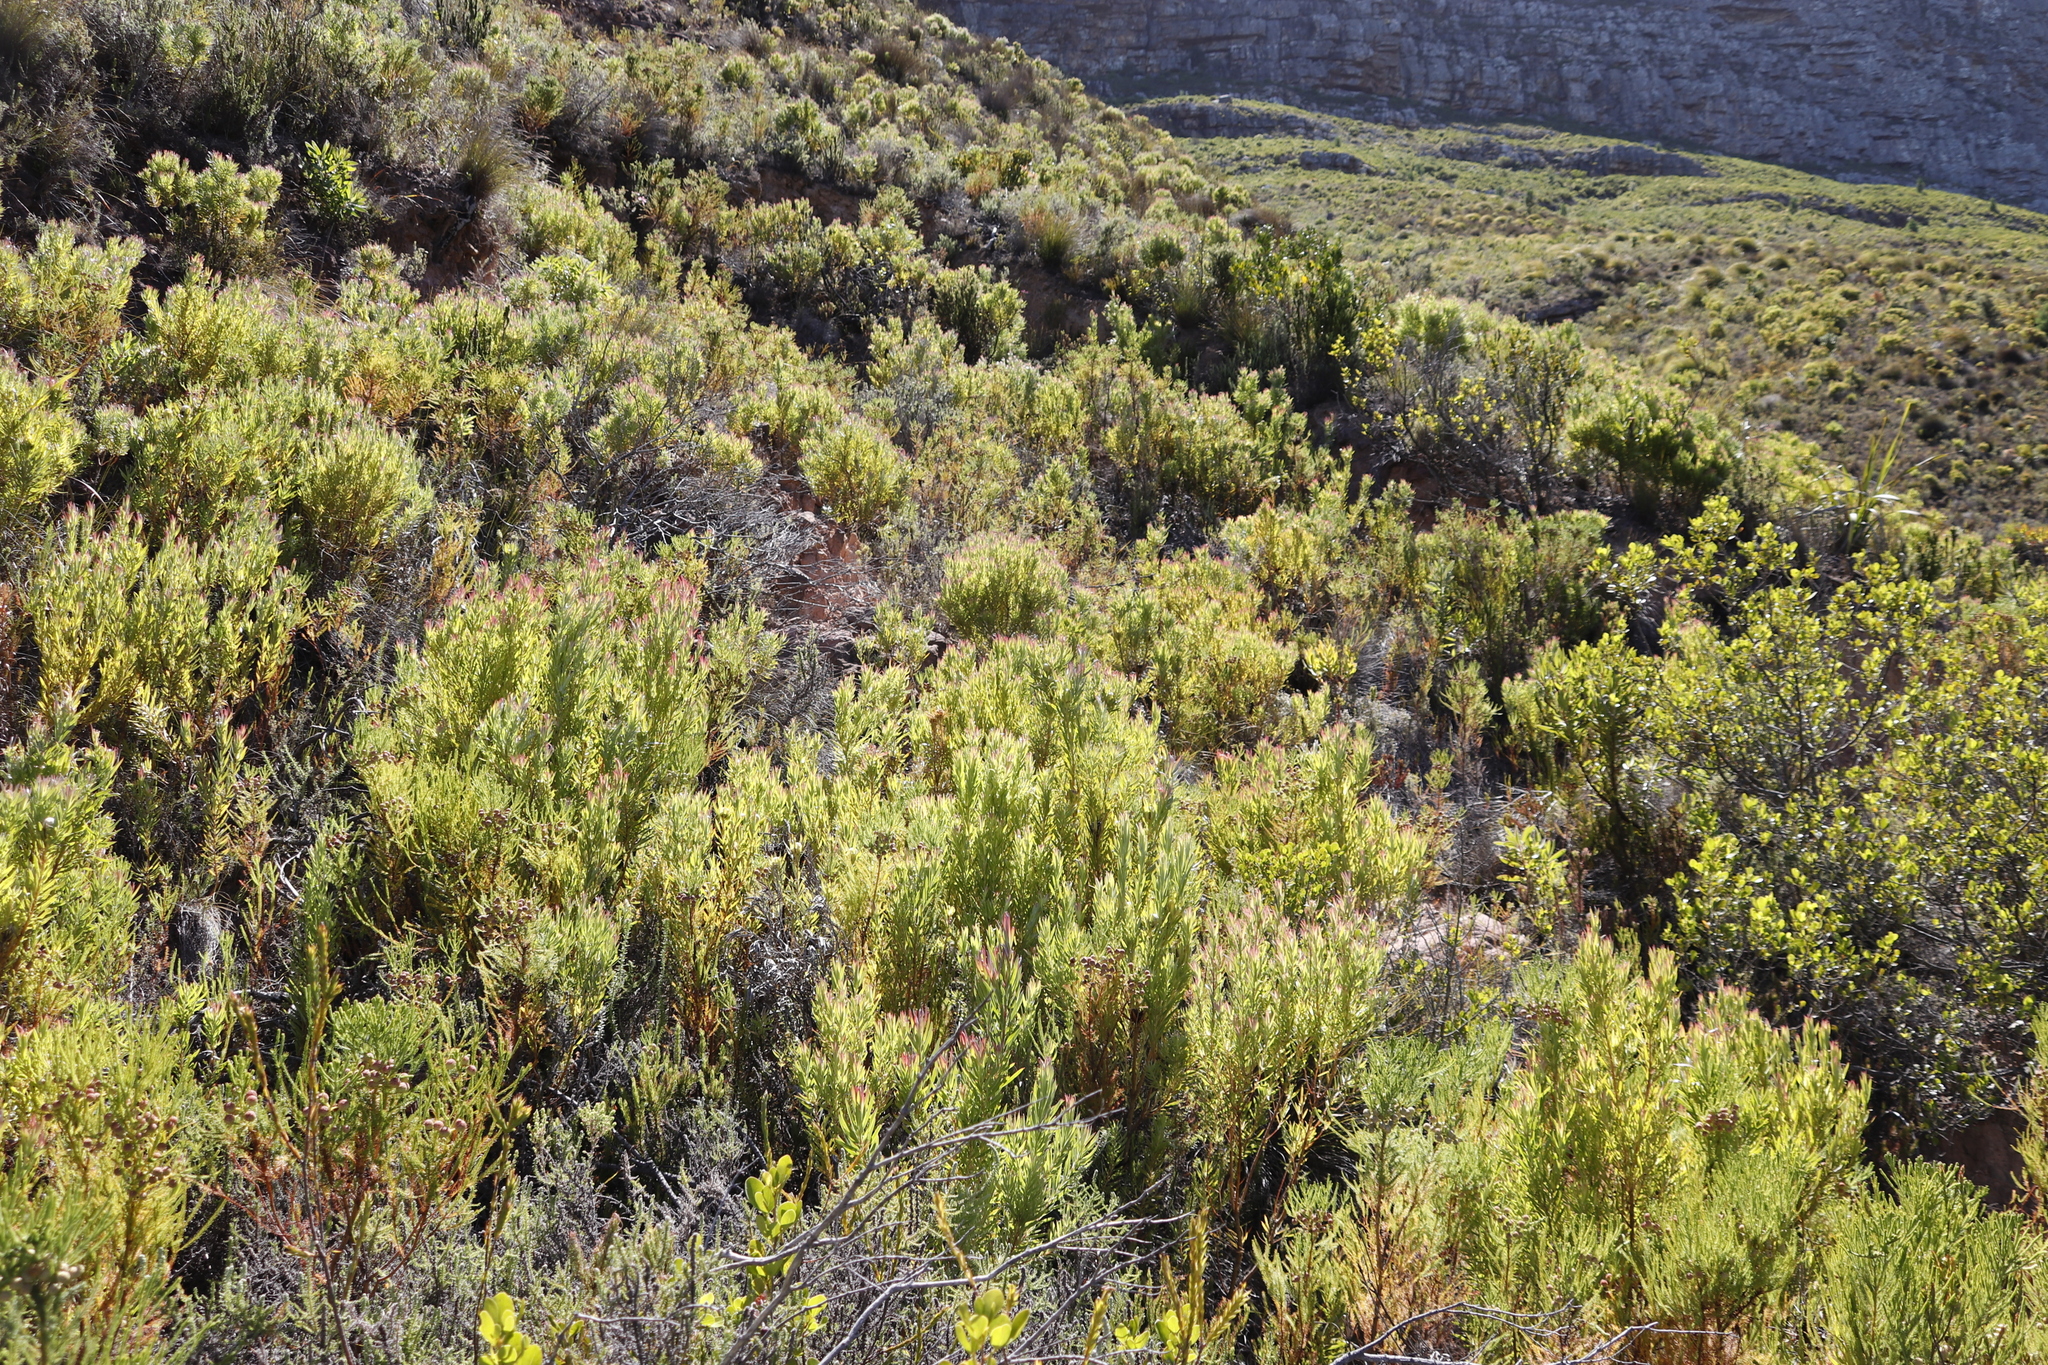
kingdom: Plantae
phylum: Tracheophyta
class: Magnoliopsida
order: Proteales
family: Proteaceae
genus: Leucadendron
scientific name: Leucadendron xanthoconus
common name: Sickle-leaf conebush
